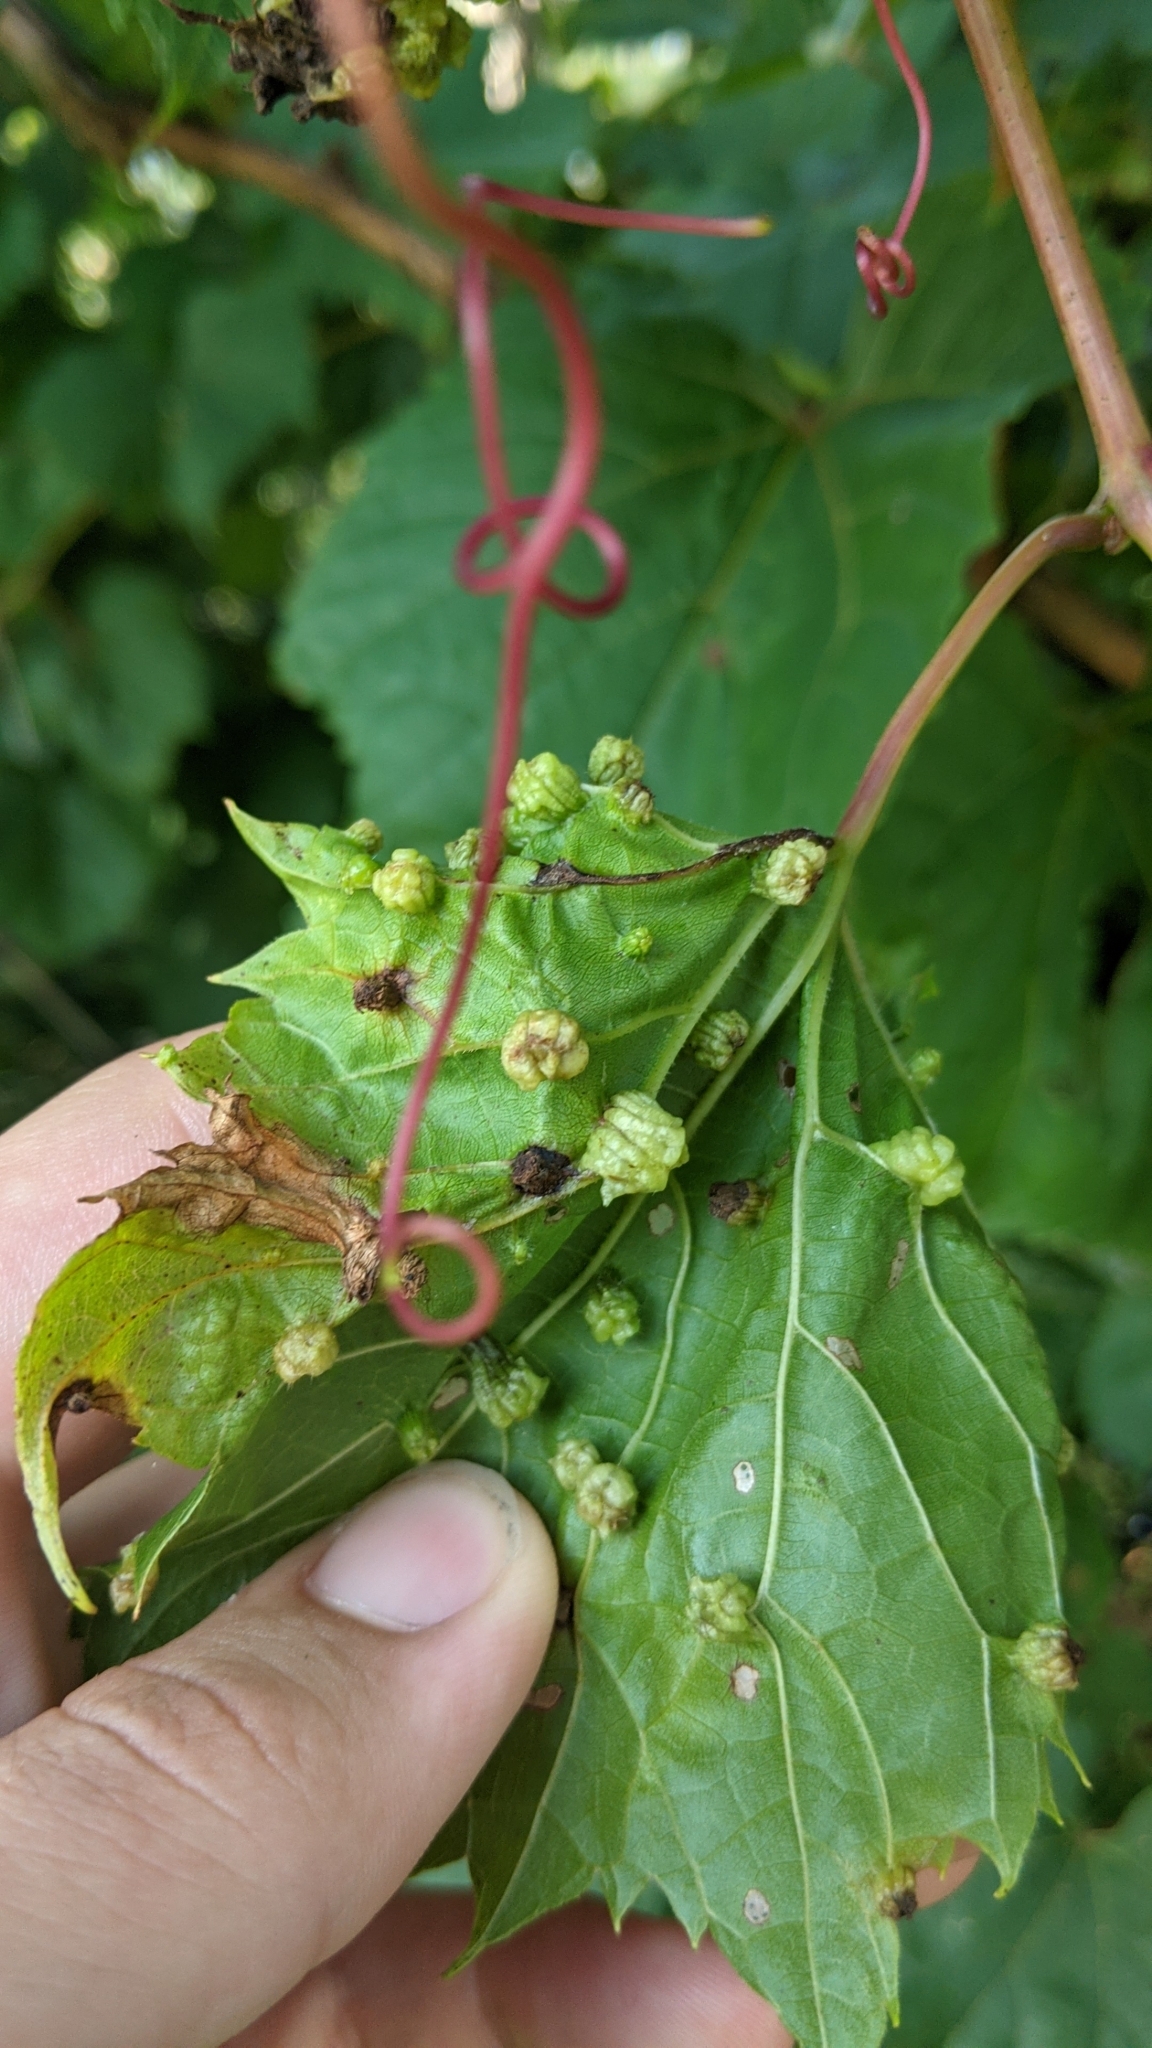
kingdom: Animalia
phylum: Arthropoda
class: Insecta
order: Hemiptera
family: Phylloxeridae
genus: Daktulosphaira
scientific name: Daktulosphaira vitifoliae
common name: Grape phylloxera
